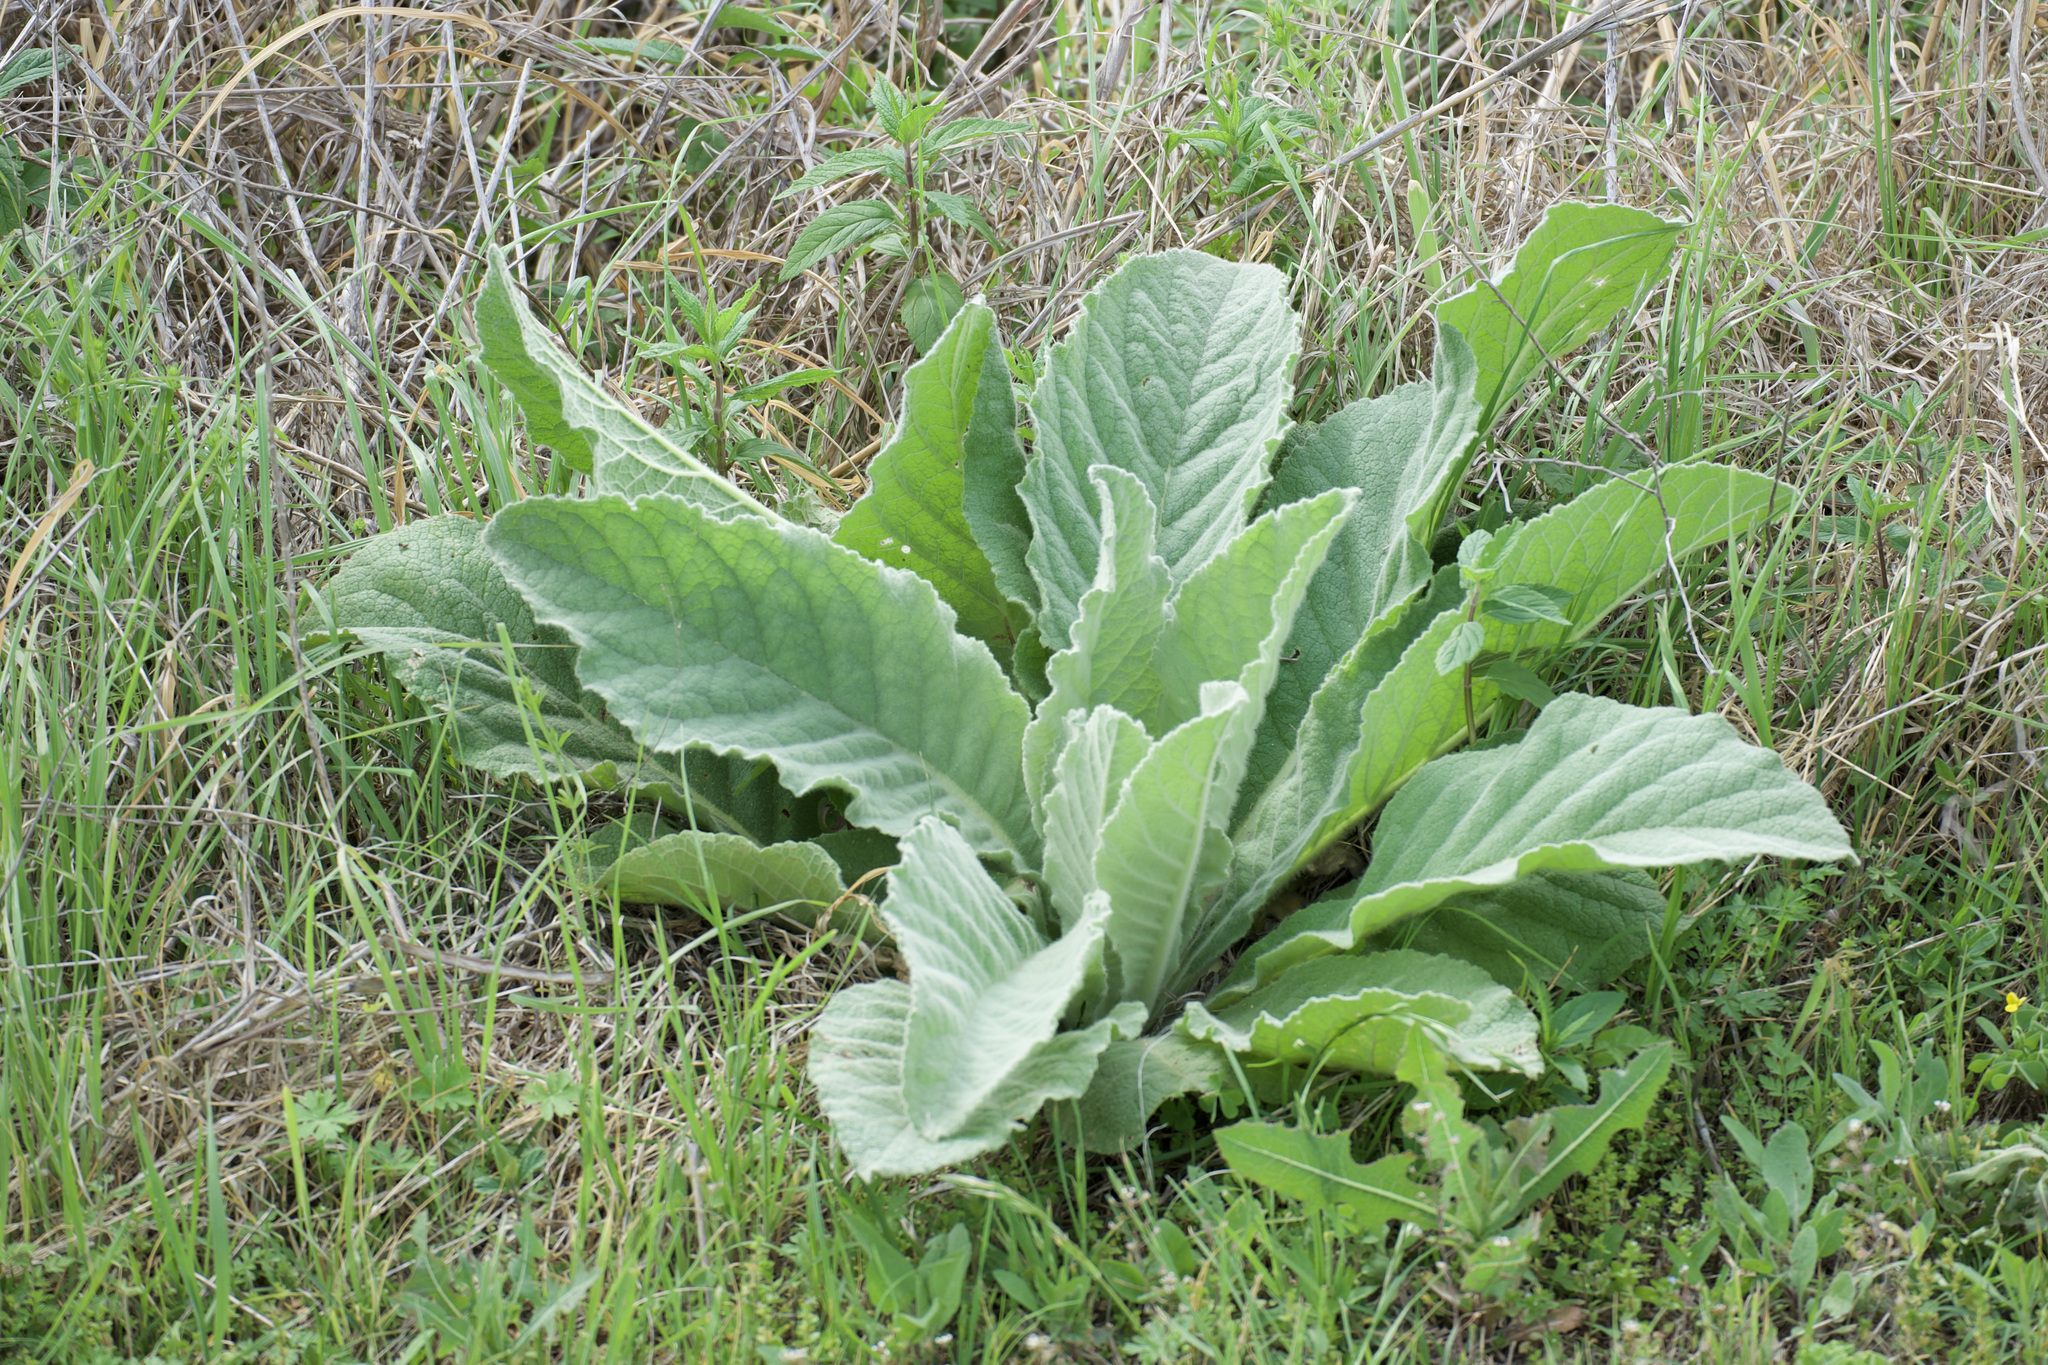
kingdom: Plantae
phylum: Tracheophyta
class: Magnoliopsida
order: Lamiales
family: Scrophulariaceae
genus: Verbascum
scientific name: Verbascum thapsus
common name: Common mullein
